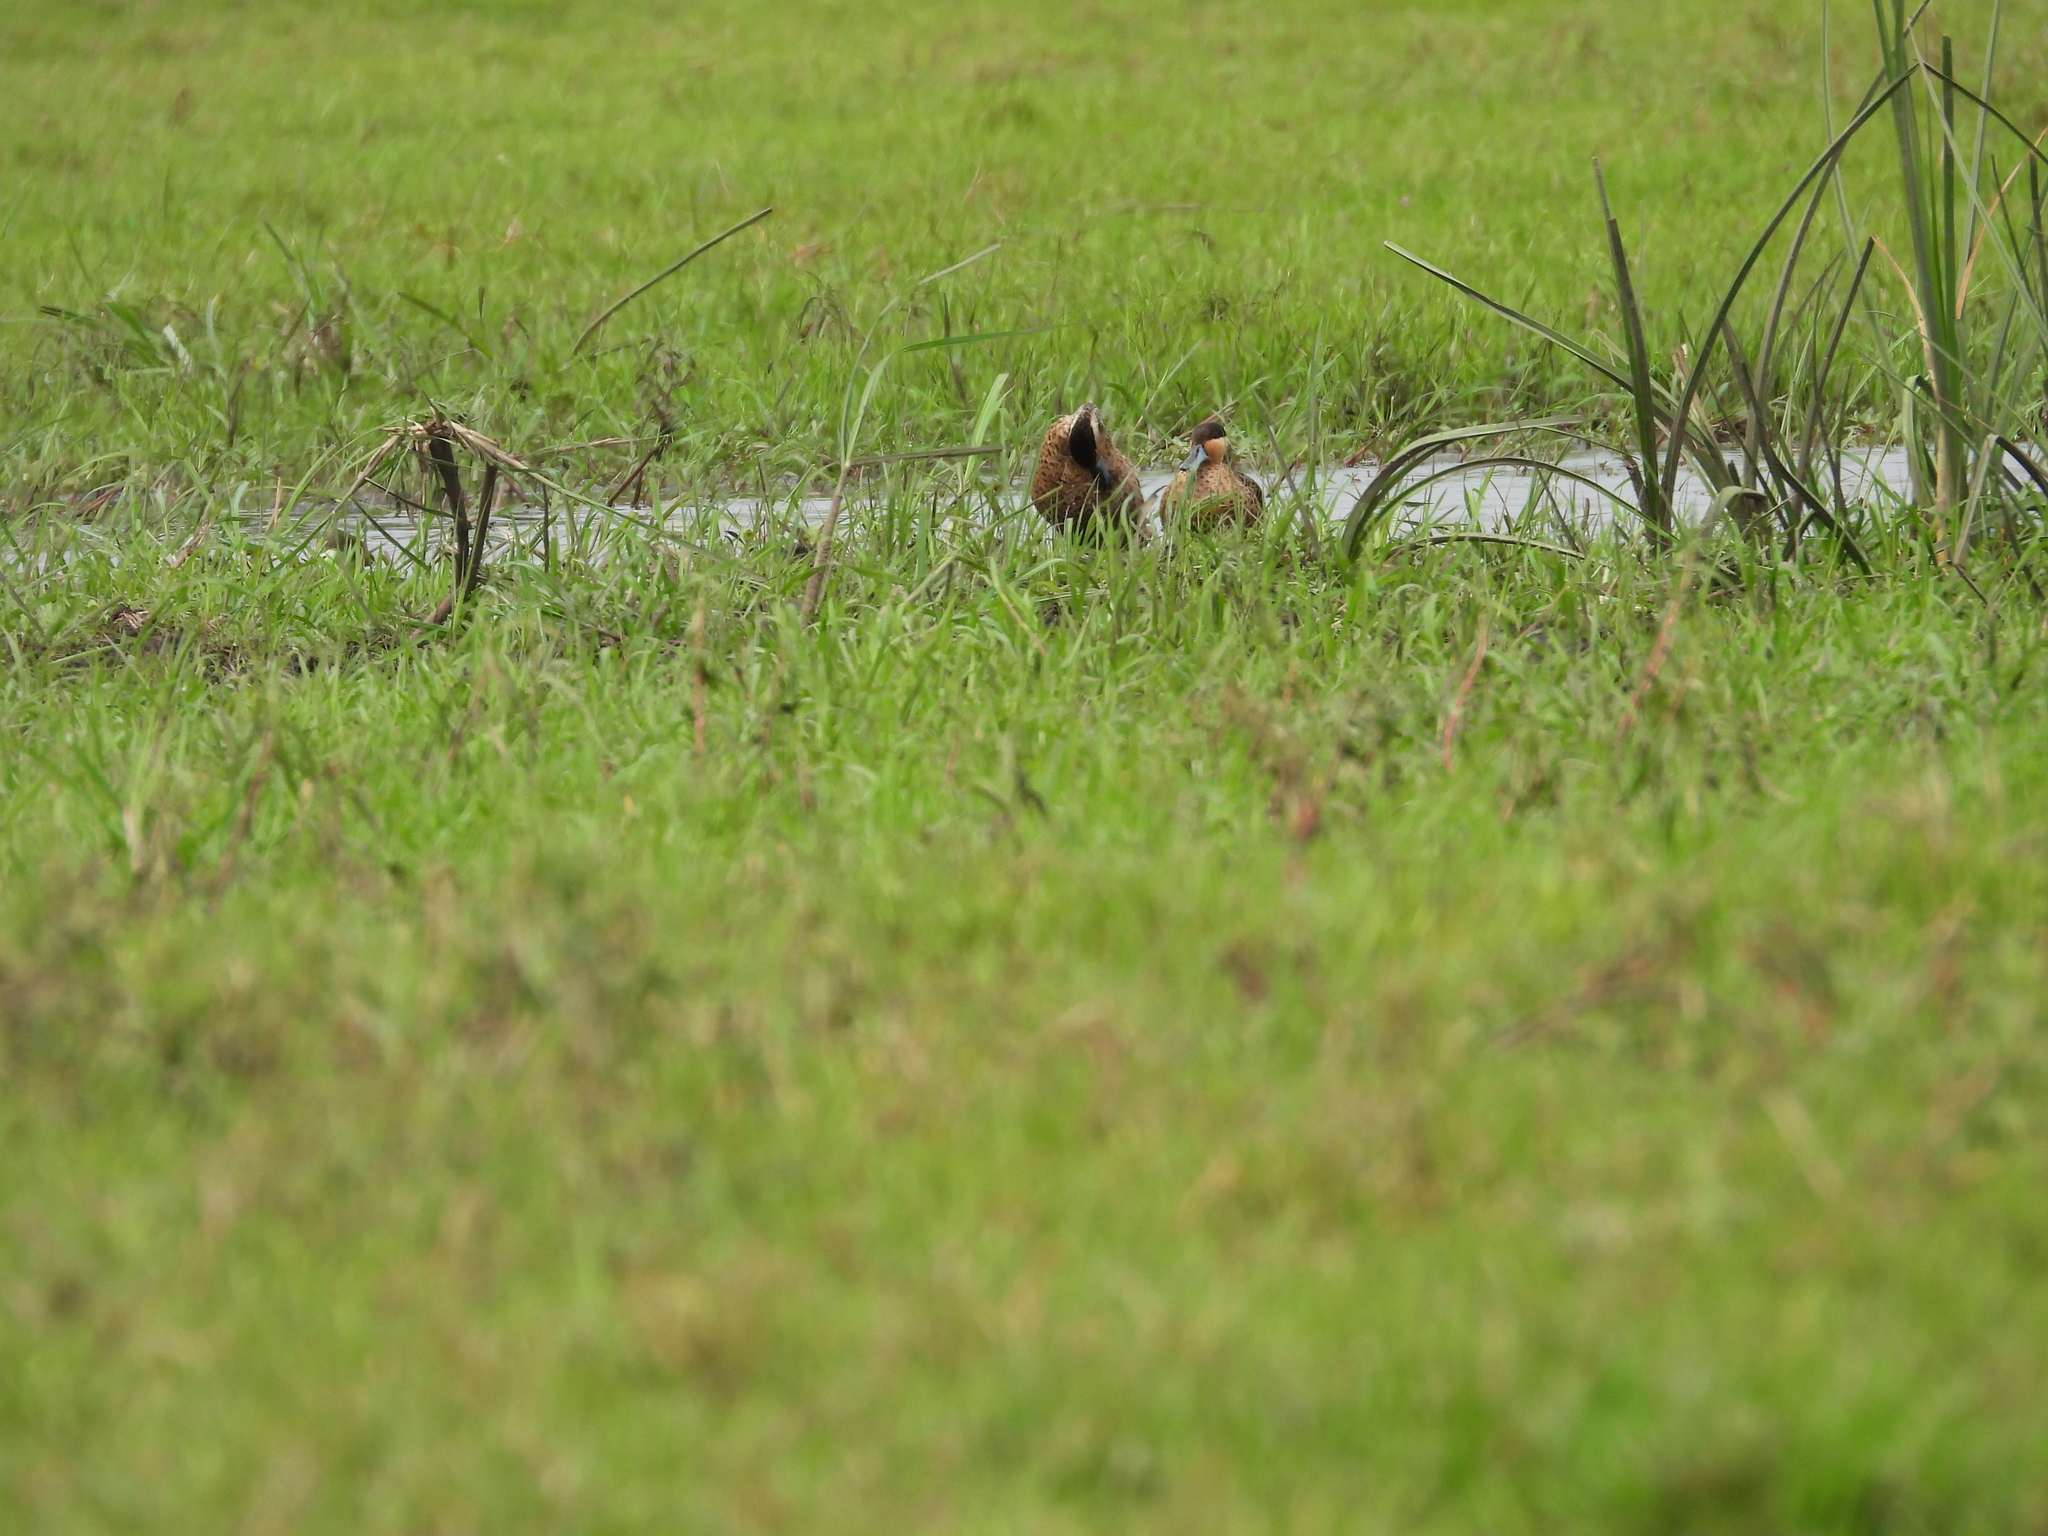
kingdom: Animalia
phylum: Chordata
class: Aves
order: Anseriformes
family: Anatidae
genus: Spatula
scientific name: Spatula hottentota
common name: Blue-billed teal
